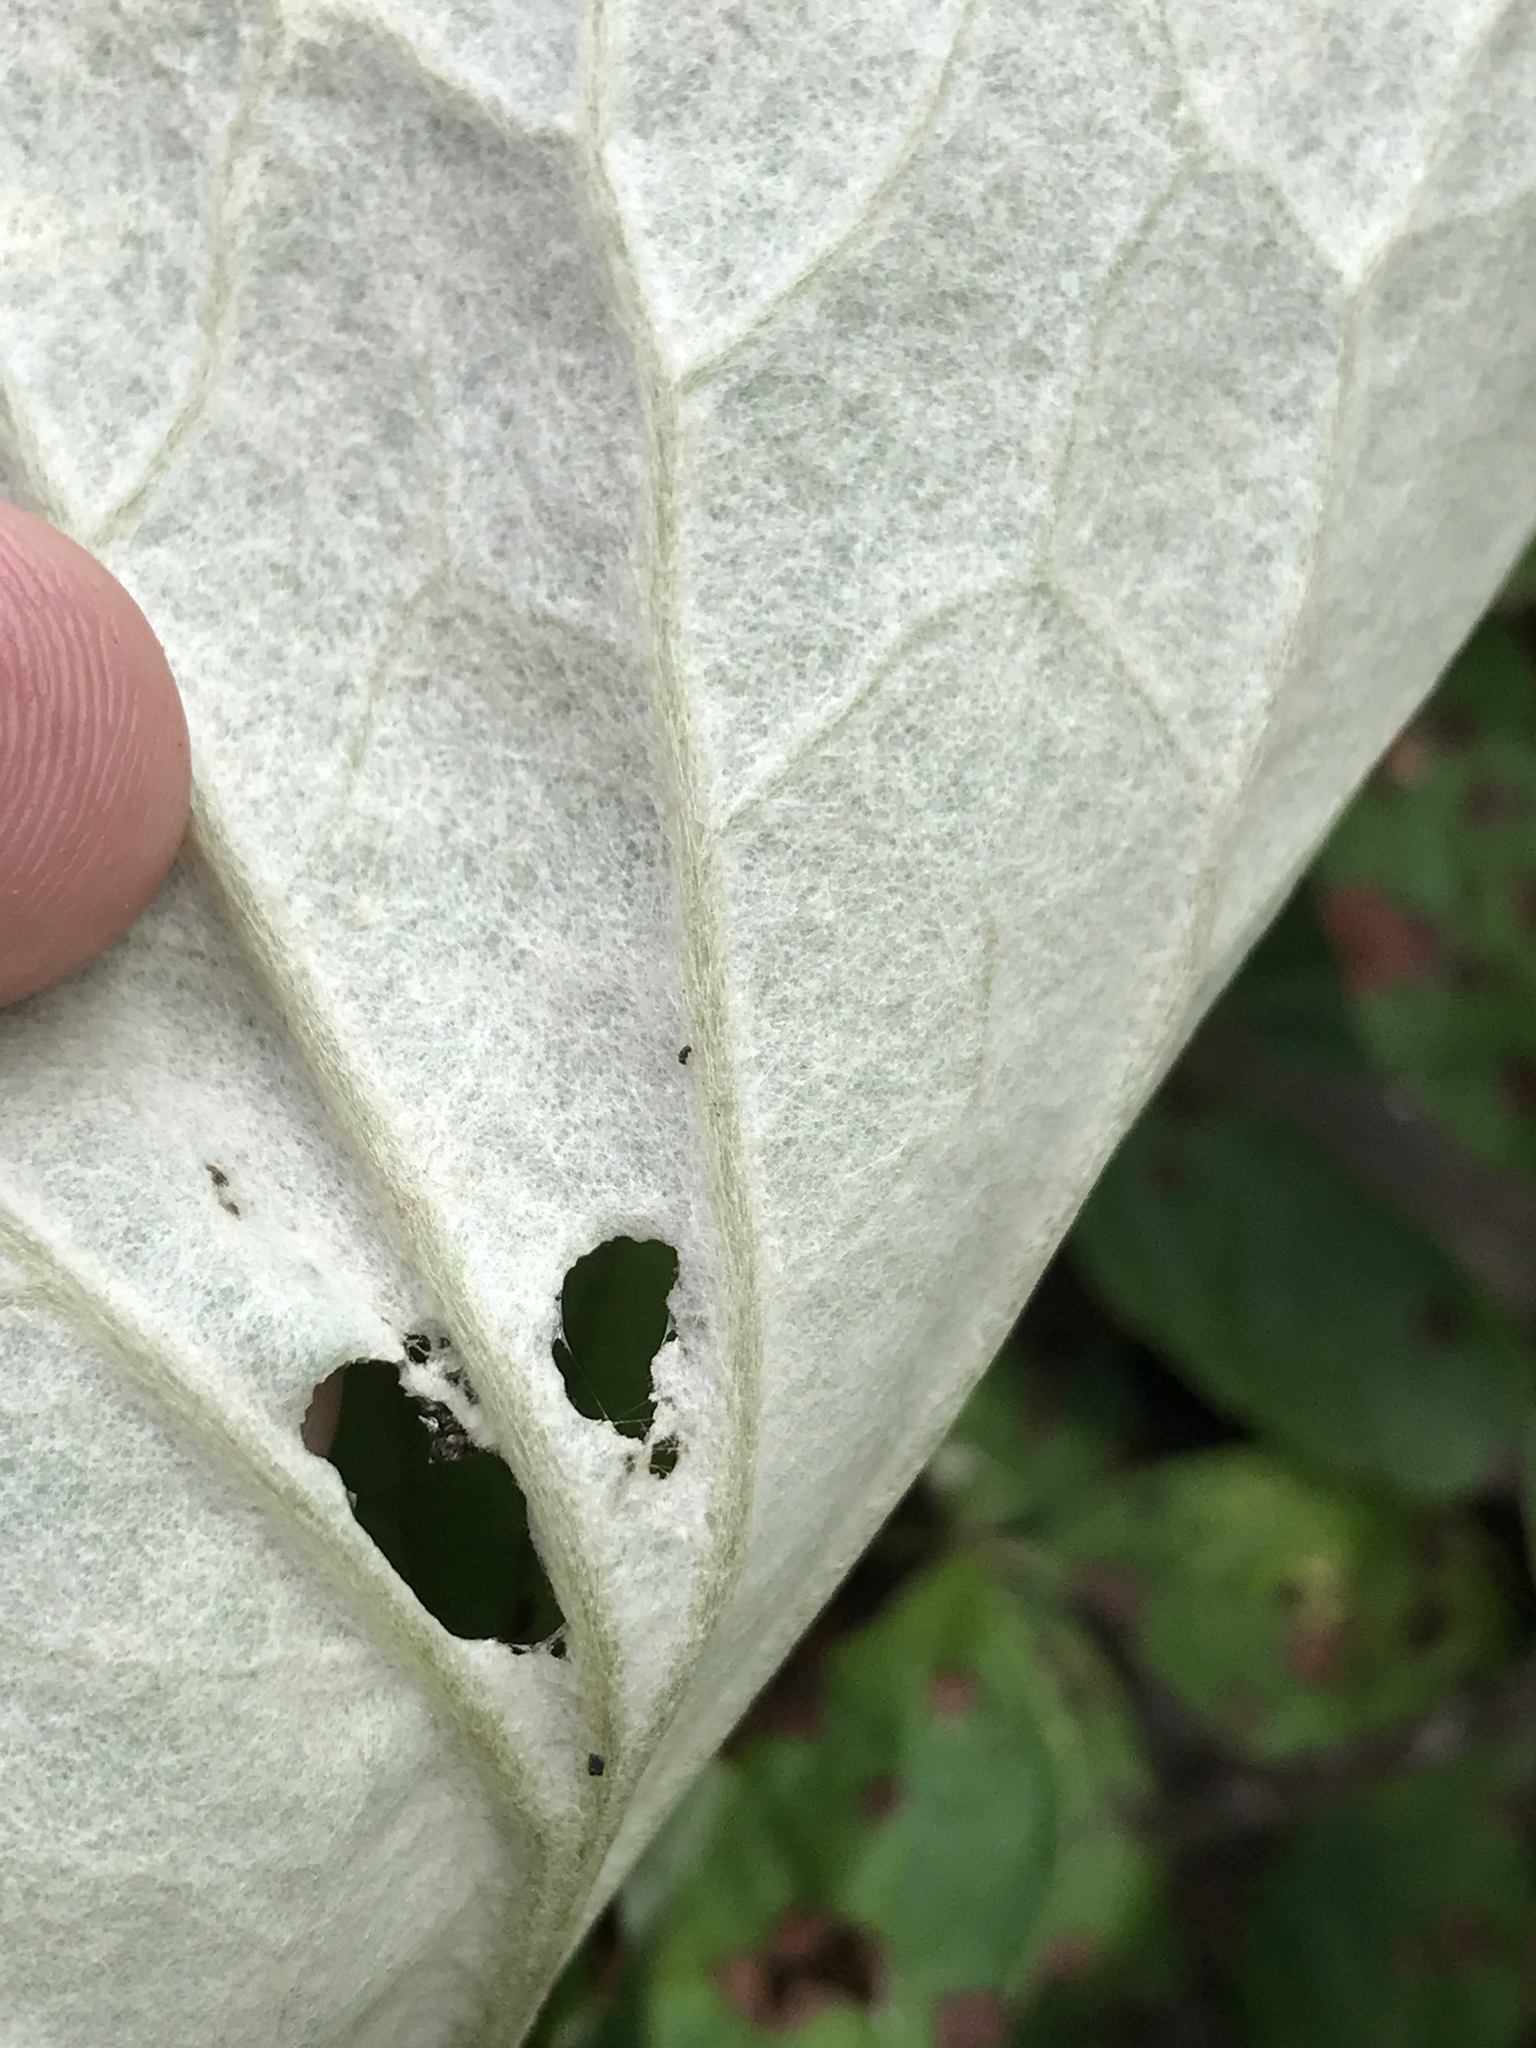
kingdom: Plantae
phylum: Tracheophyta
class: Magnoliopsida
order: Asterales
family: Asteraceae
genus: Tussilago
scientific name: Tussilago farfara
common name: Coltsfoot
